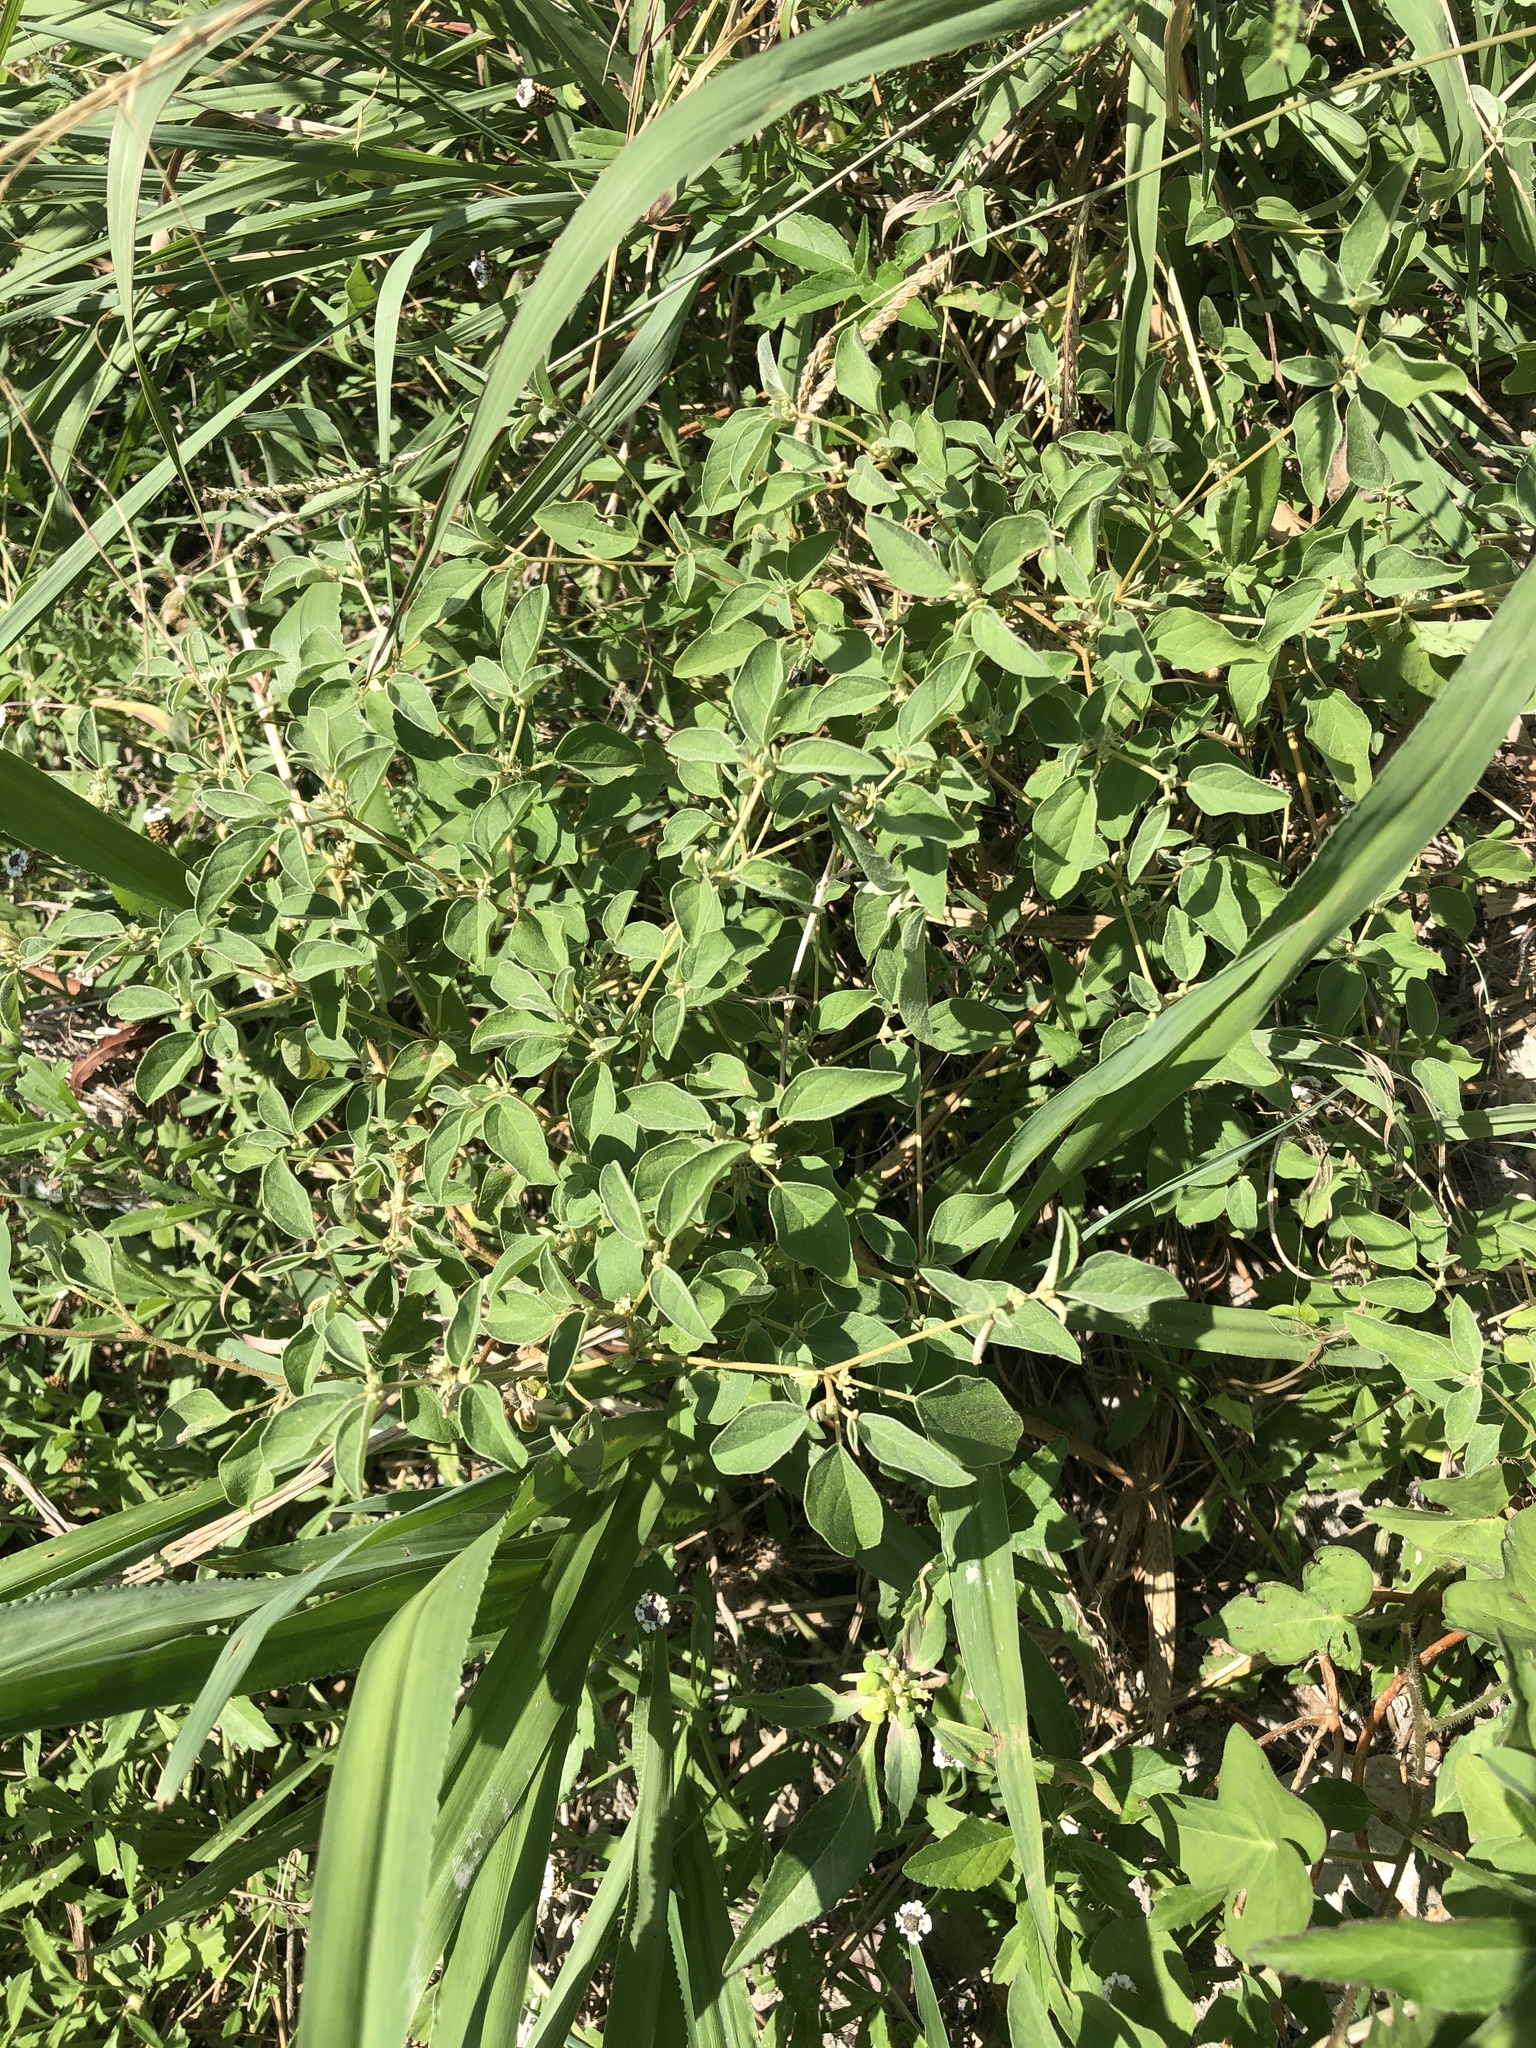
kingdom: Plantae
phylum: Tracheophyta
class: Magnoliopsida
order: Malpighiales
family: Euphorbiaceae
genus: Croton
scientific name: Croton monanthogynus
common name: One-seed croton
